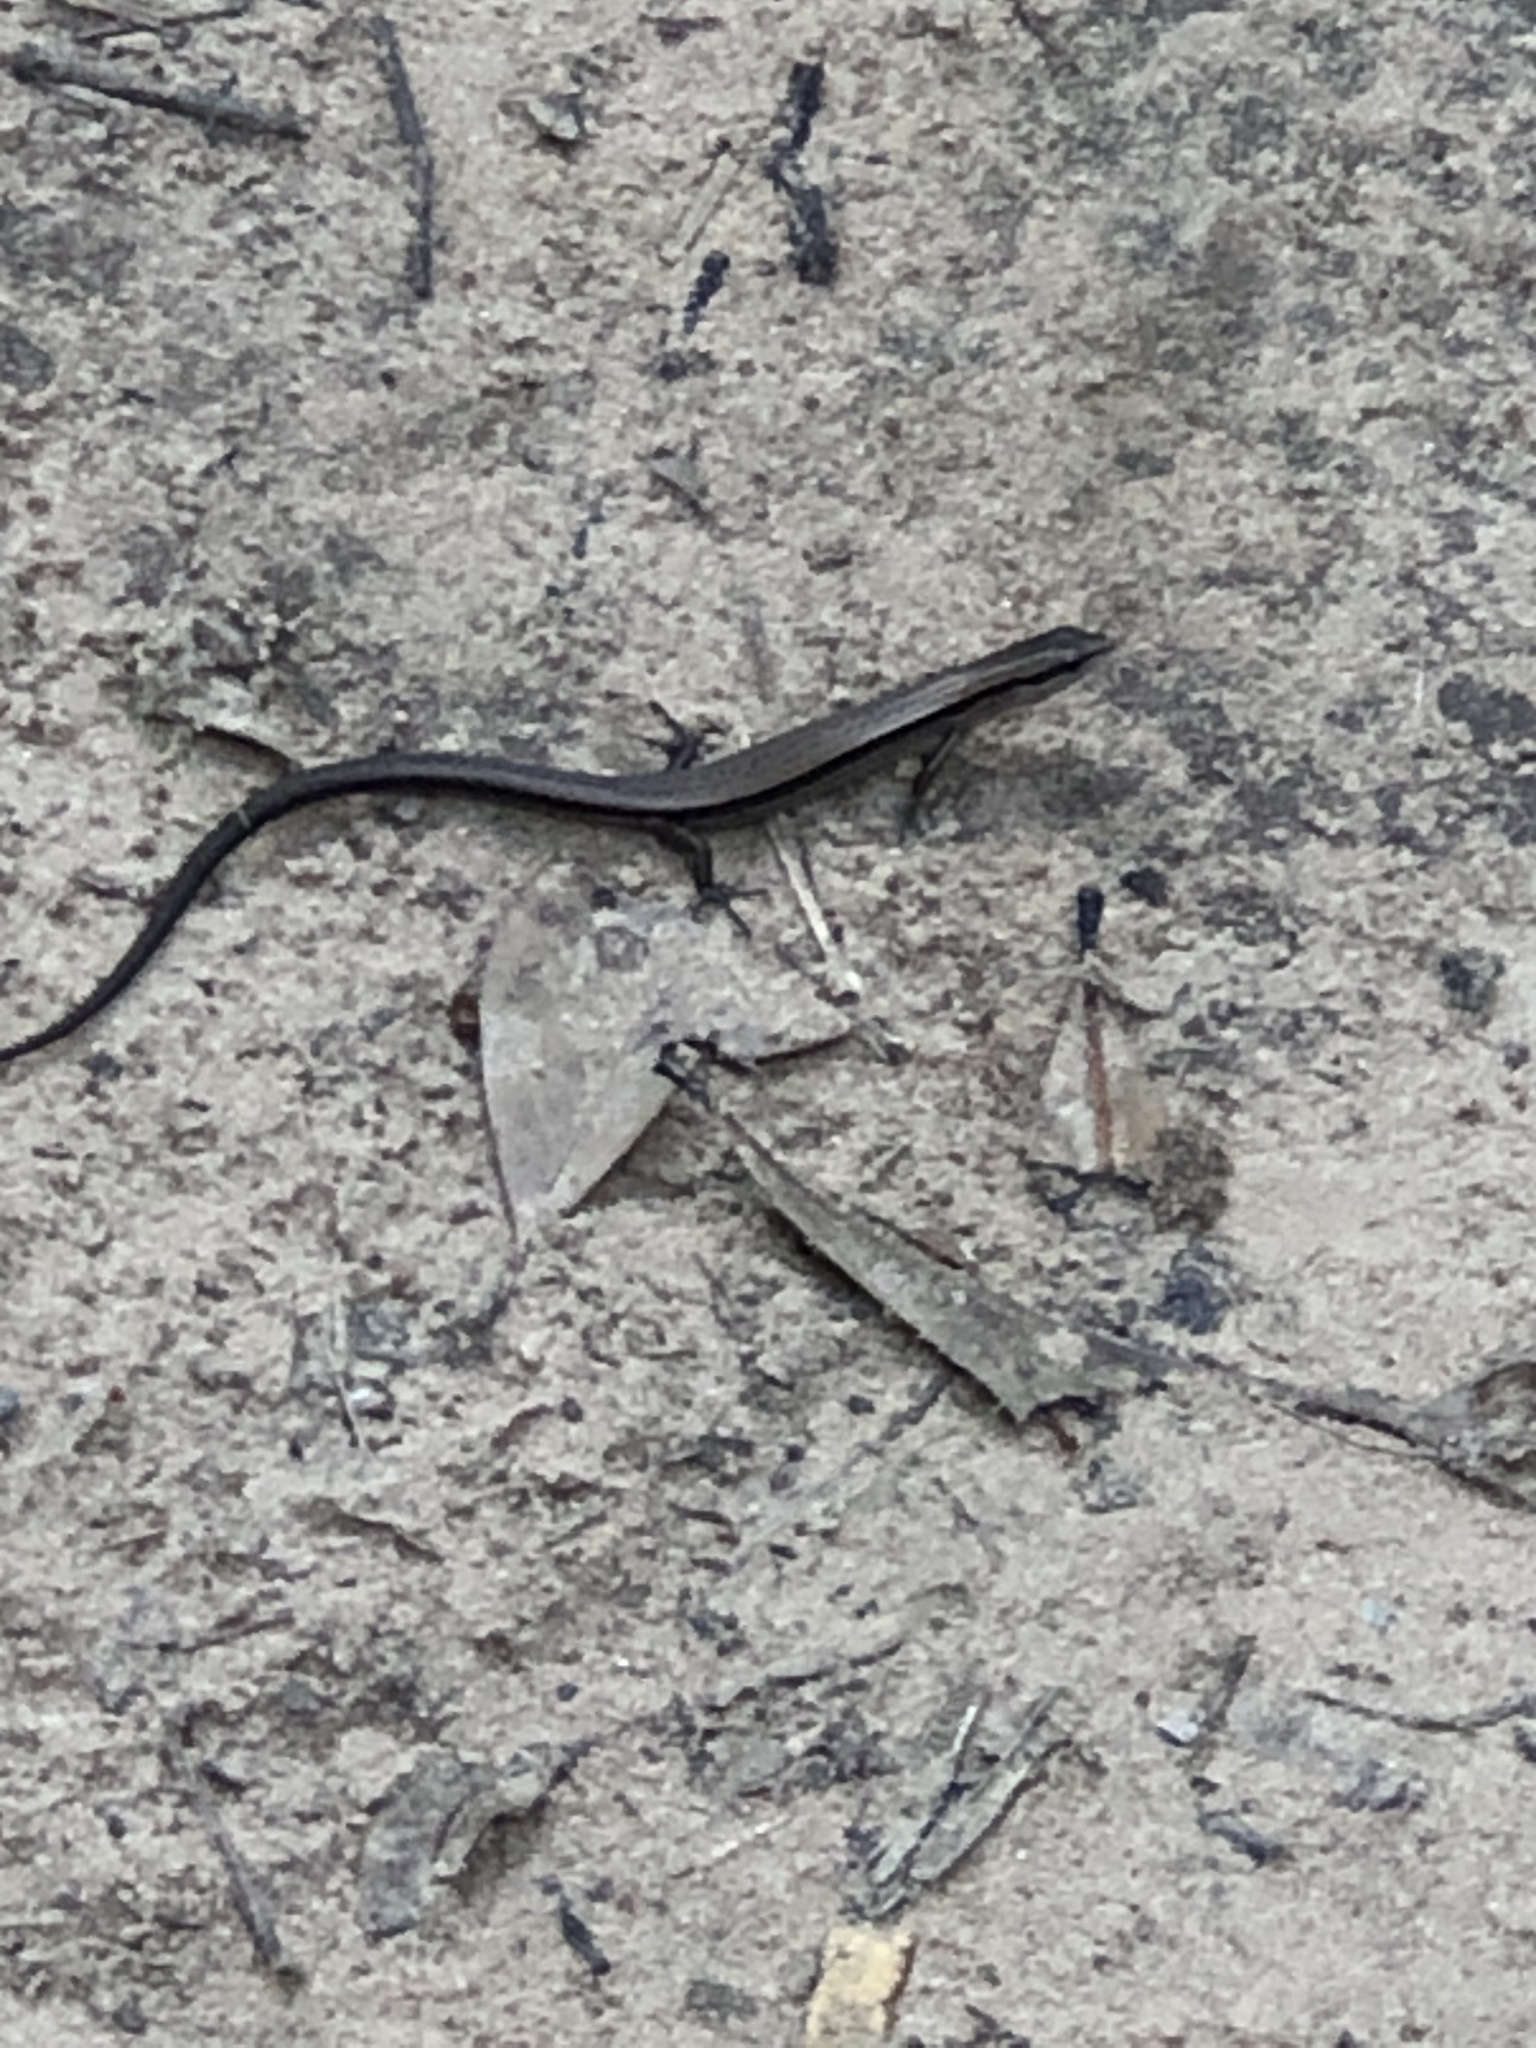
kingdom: Animalia
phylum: Chordata
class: Squamata
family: Scincidae
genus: Scincella
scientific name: Scincella lateralis
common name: Ground skink
